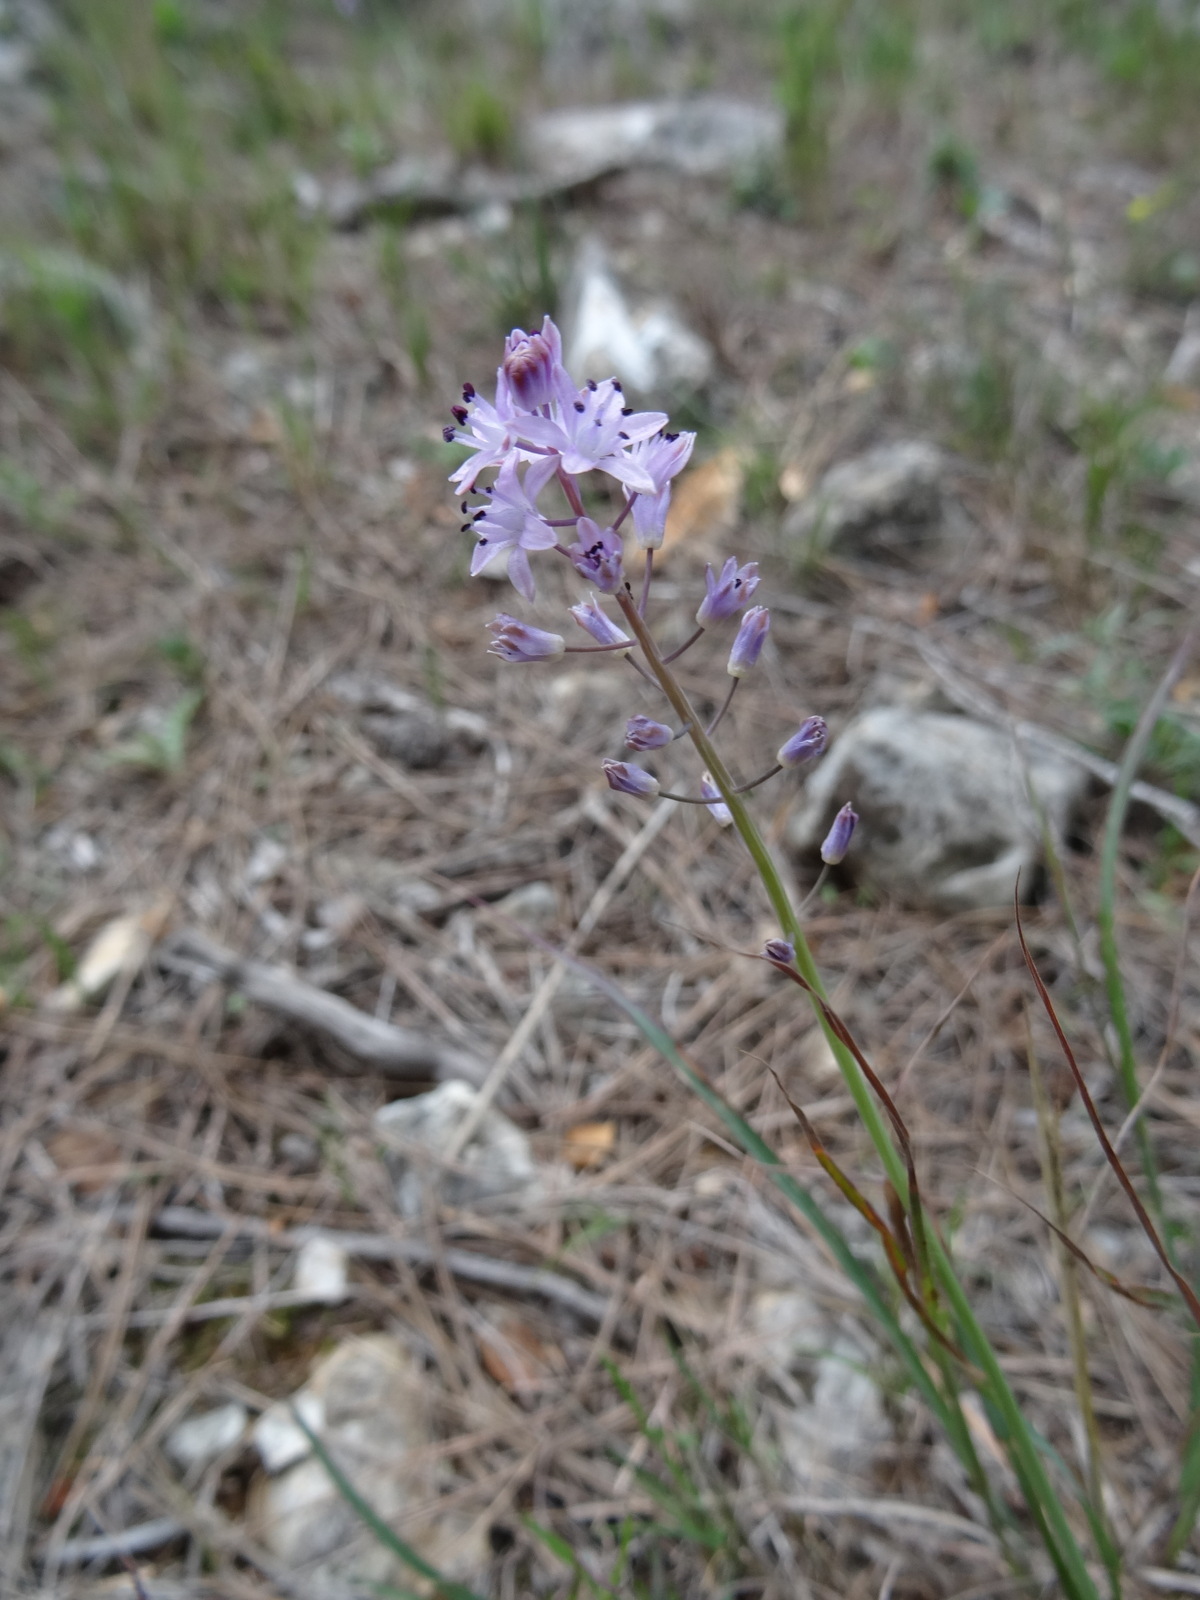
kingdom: Plantae
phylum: Tracheophyta
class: Liliopsida
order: Asparagales
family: Asparagaceae
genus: Prospero
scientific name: Prospero autumnale
